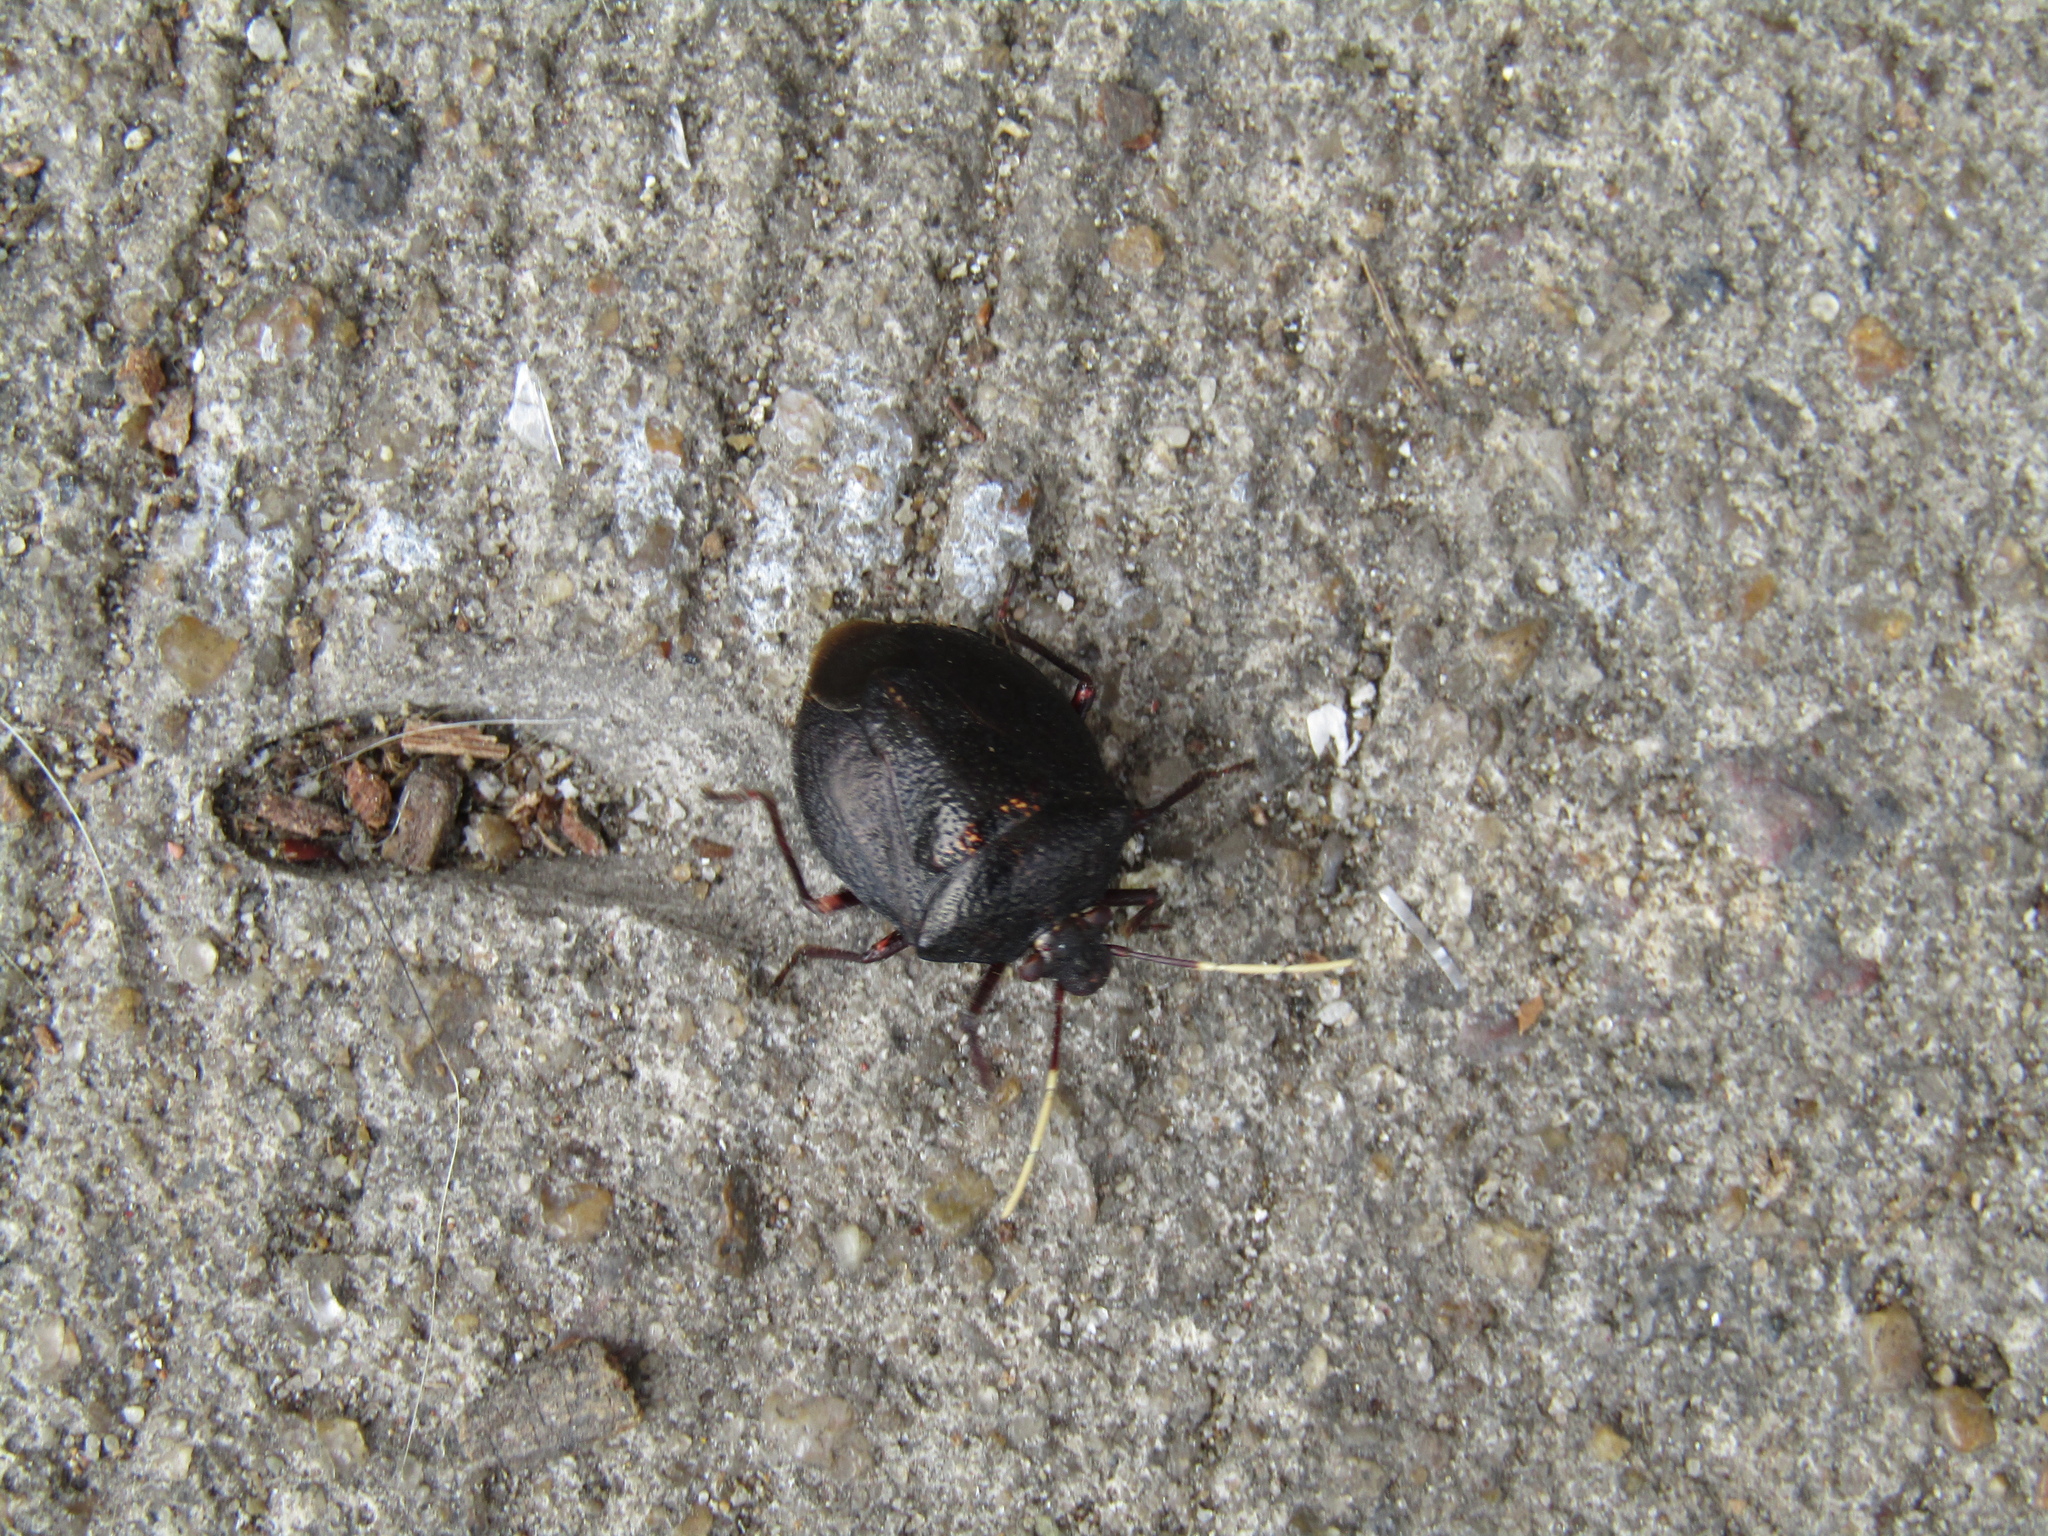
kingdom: Animalia
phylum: Arthropoda
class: Insecta
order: Hemiptera
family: Pentatomidae
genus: Antiteuchus
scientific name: Antiteuchus mixtus
